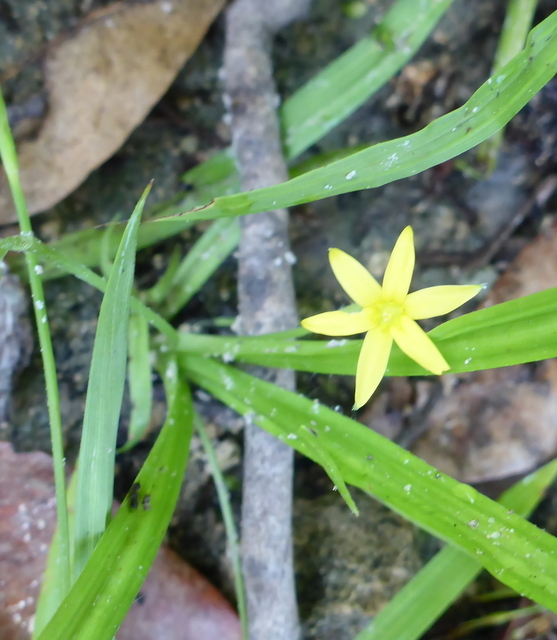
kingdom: Plantae
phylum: Tracheophyta
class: Liliopsida
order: Asparagales
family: Hypoxidaceae
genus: Hypoxis
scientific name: Hypoxis curtissii
